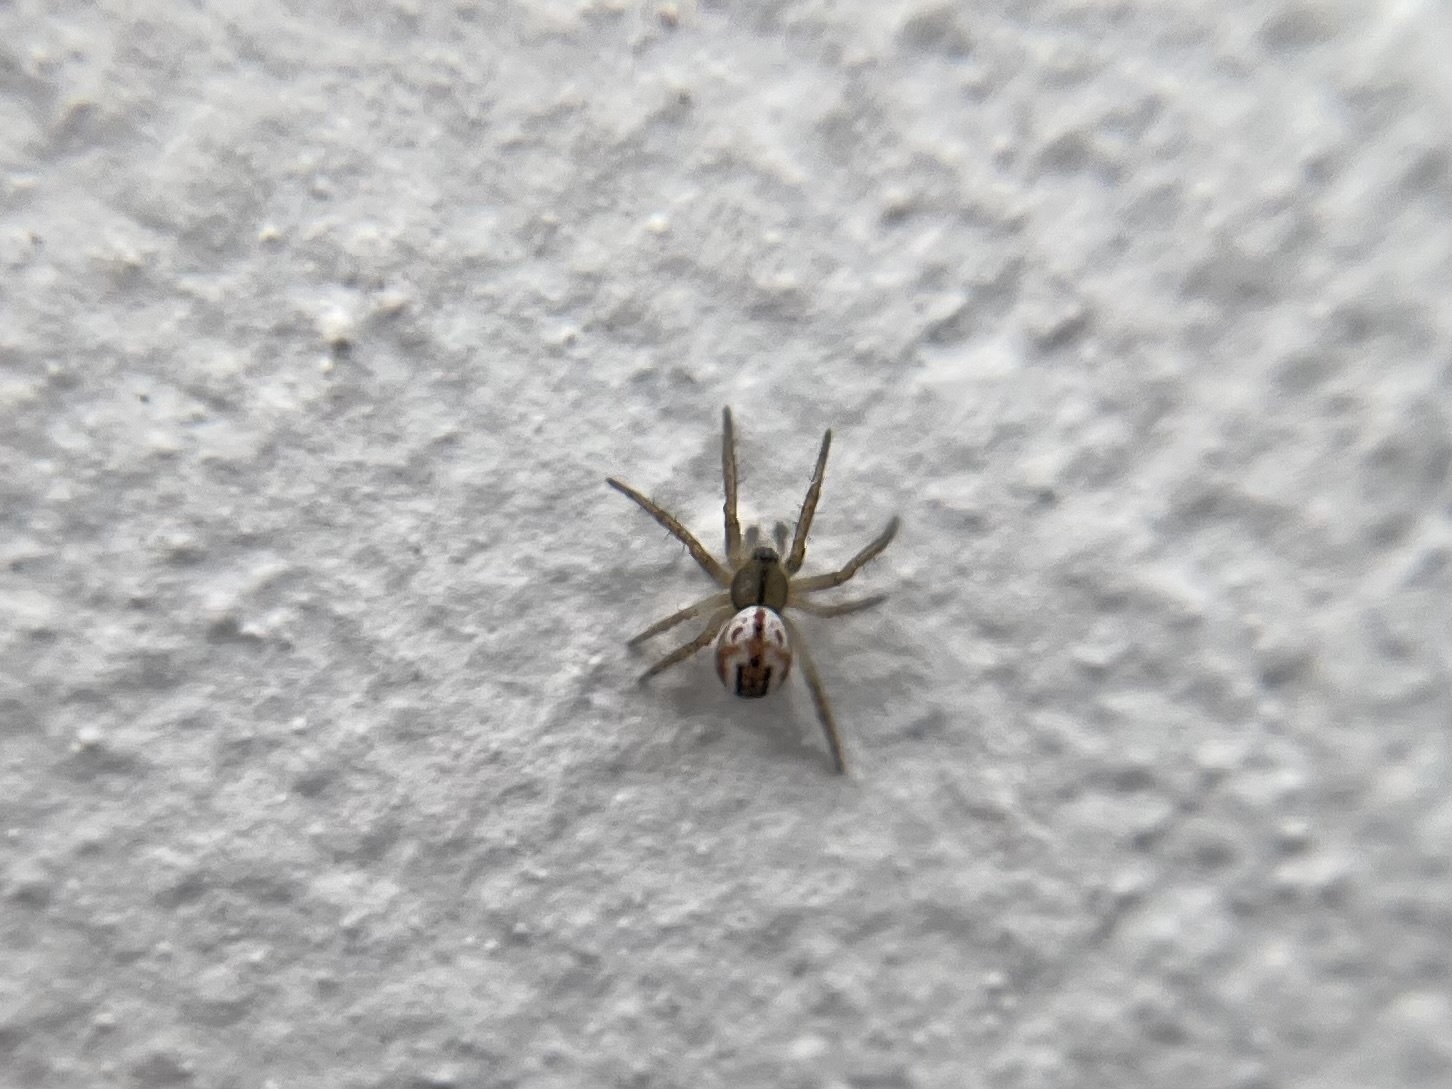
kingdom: Animalia
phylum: Arthropoda
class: Arachnida
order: Araneae
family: Araneidae
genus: Mangora
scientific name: Mangora acalypha
